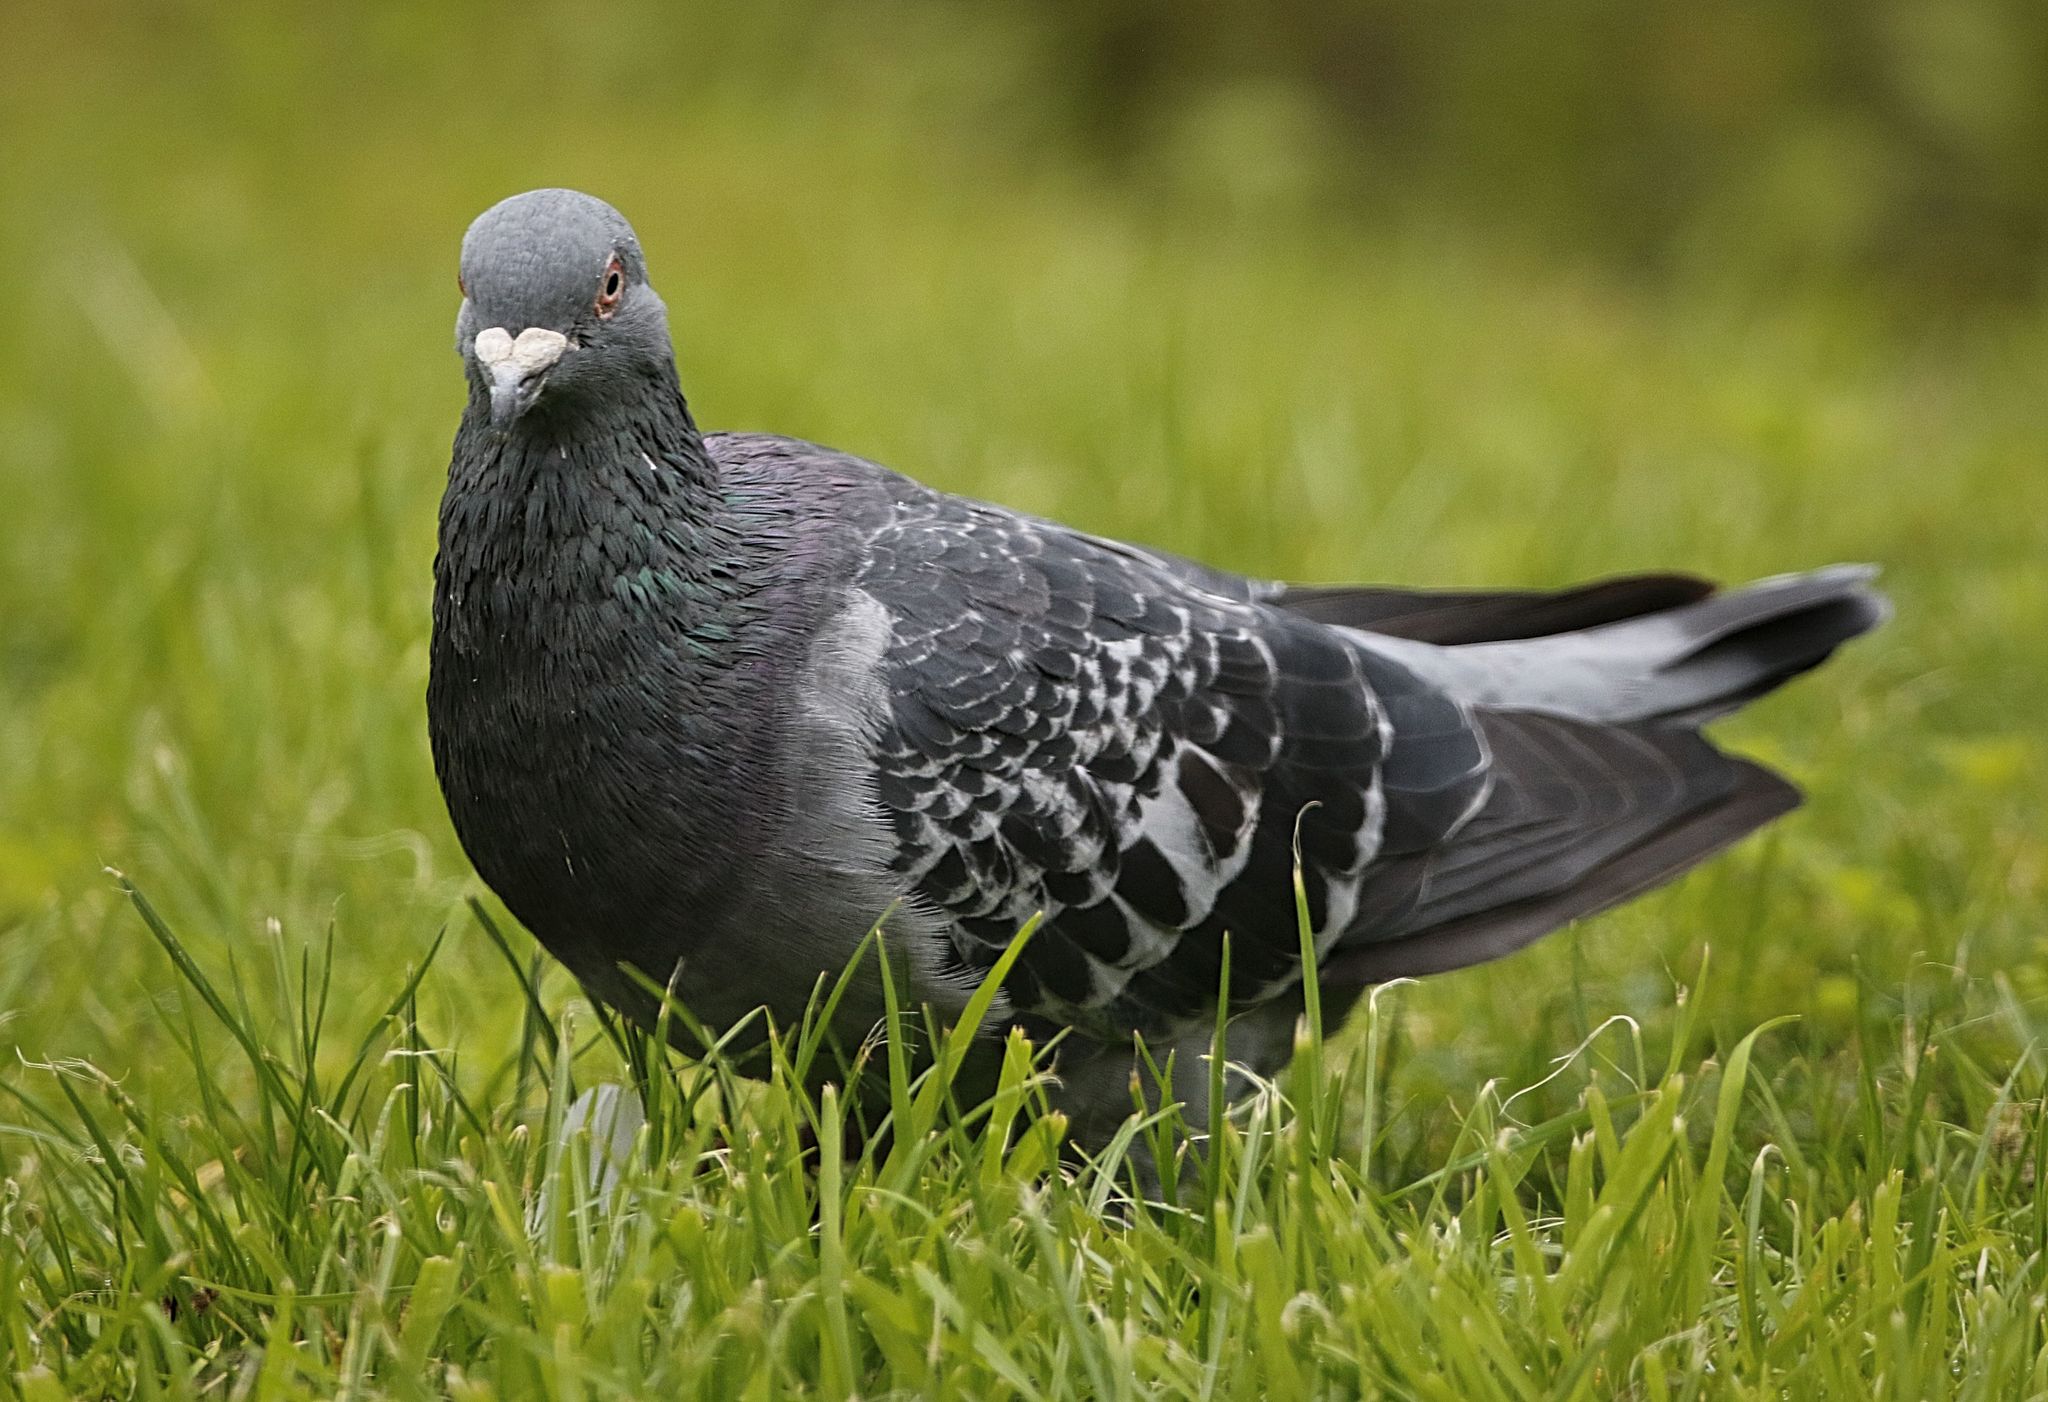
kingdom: Animalia
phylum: Chordata
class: Aves
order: Columbiformes
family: Columbidae
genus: Columba
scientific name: Columba livia
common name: Rock pigeon
